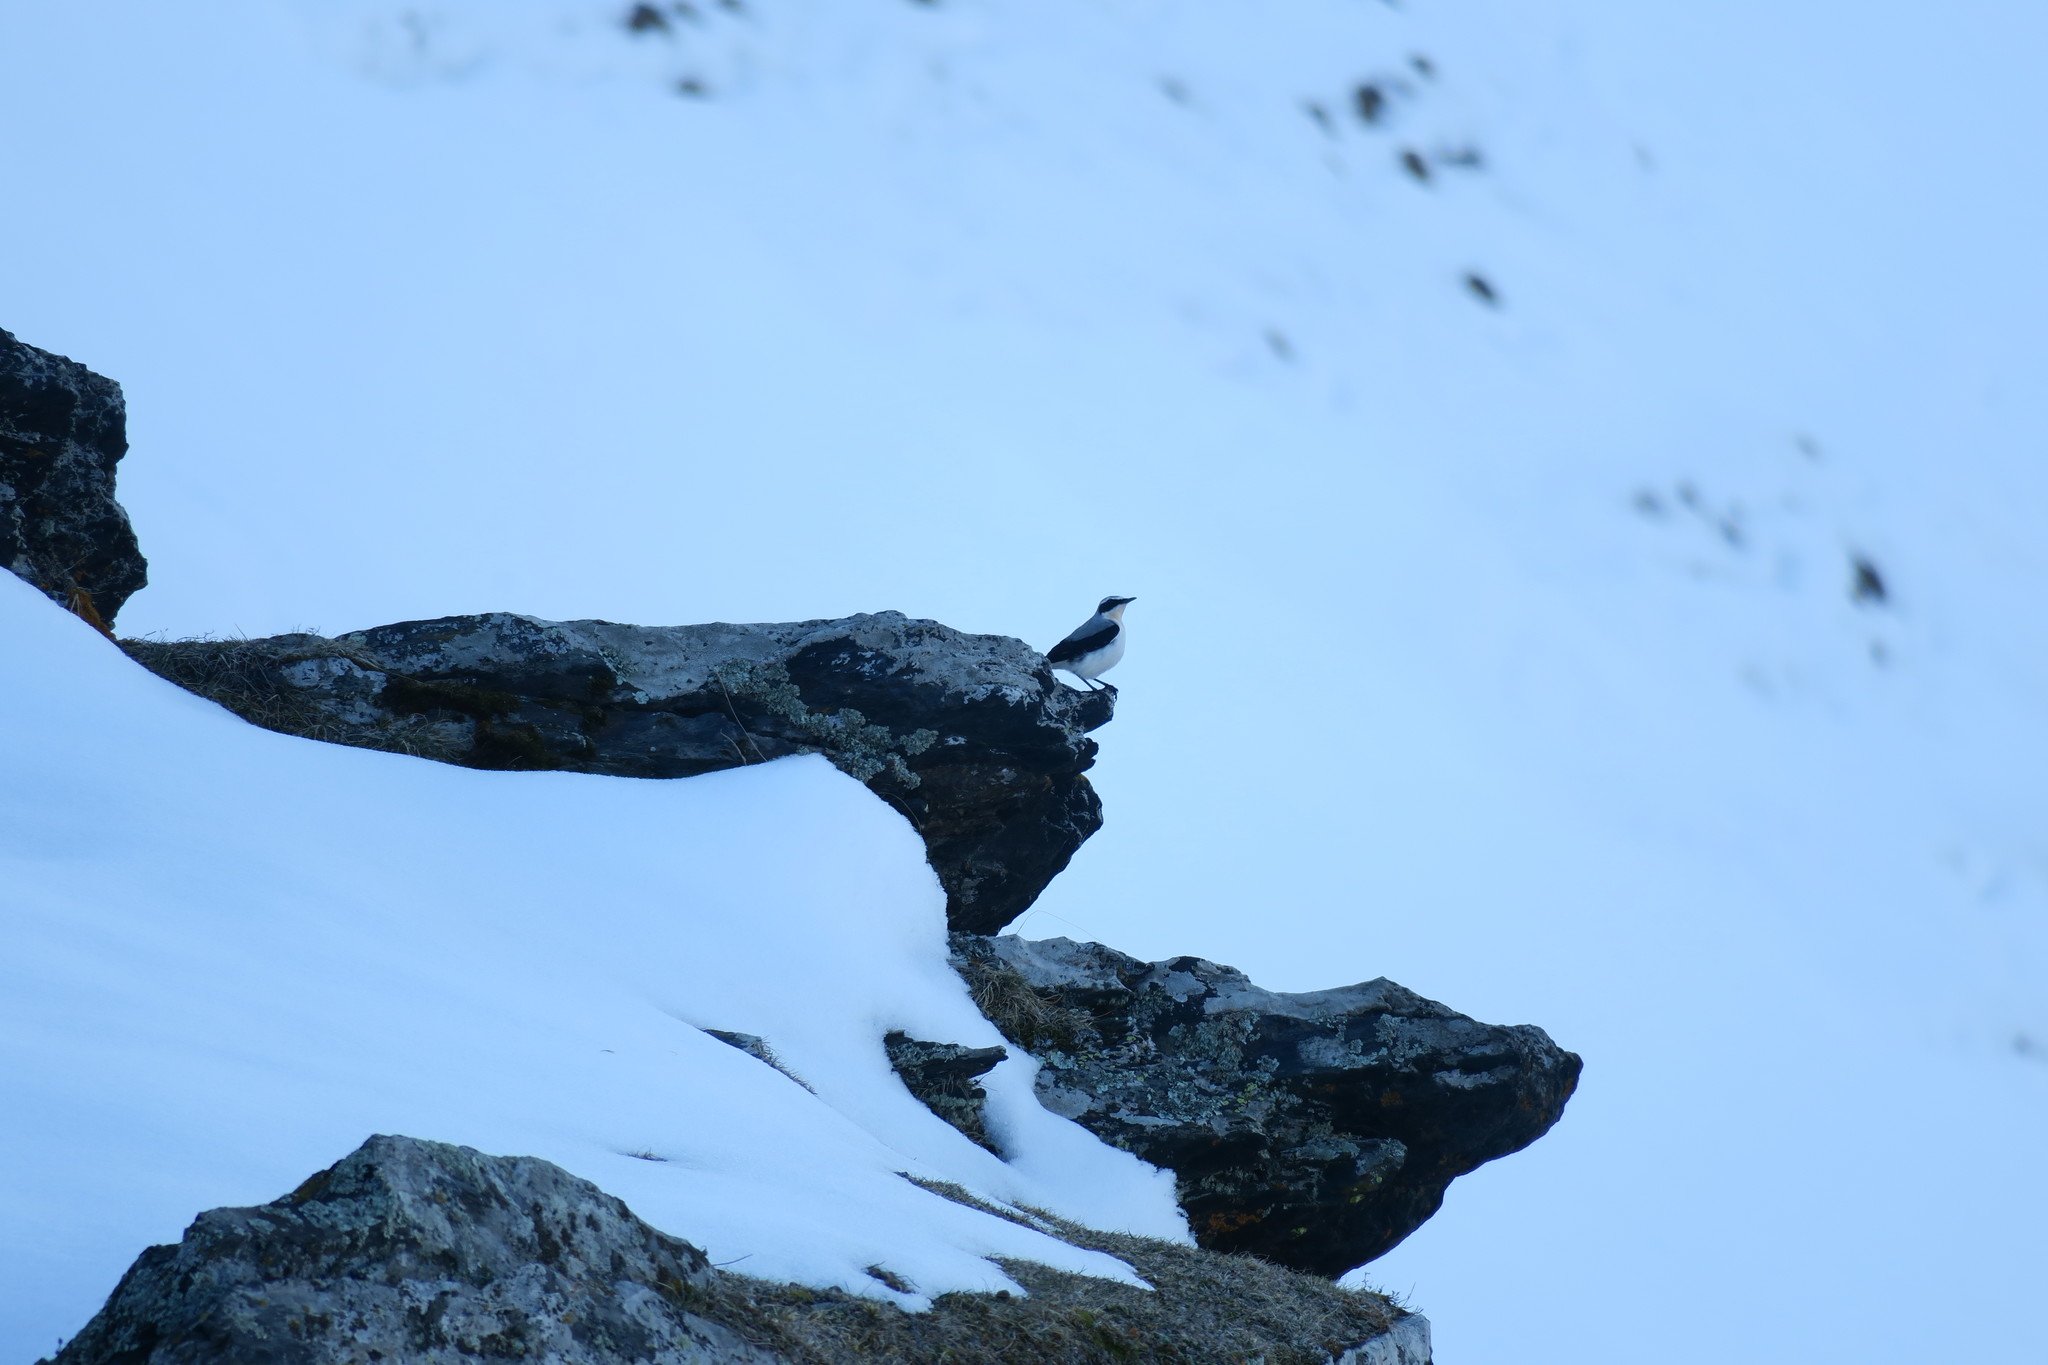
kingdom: Animalia
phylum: Chordata
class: Aves
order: Passeriformes
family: Muscicapidae
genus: Oenanthe
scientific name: Oenanthe oenanthe
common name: Northern wheatear
